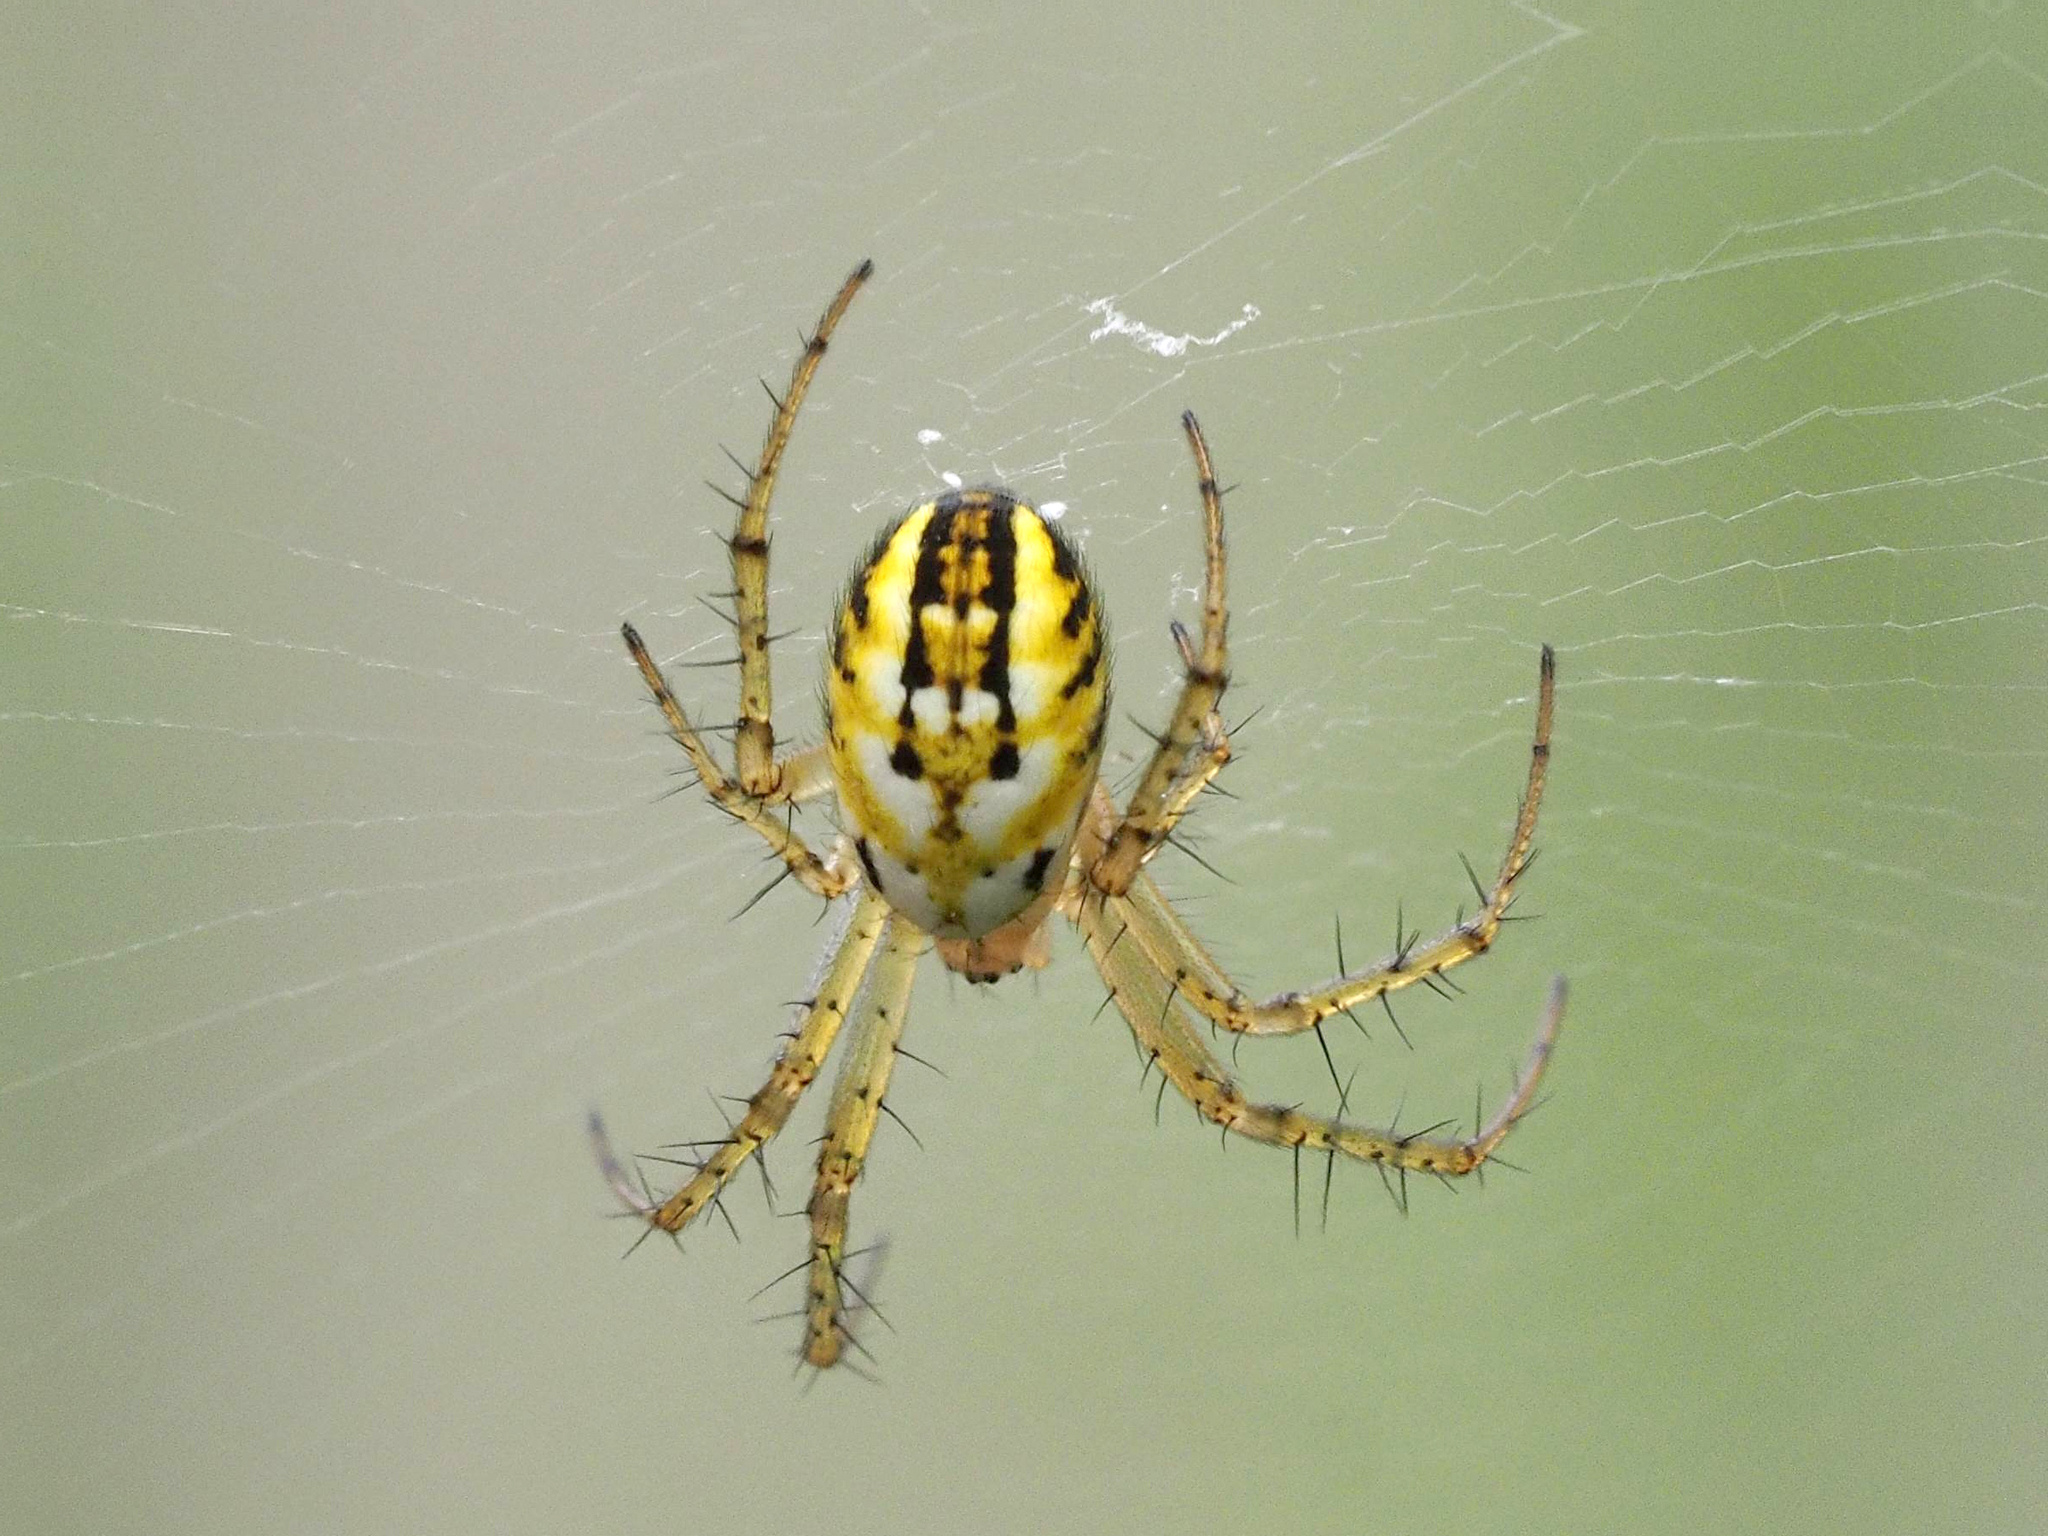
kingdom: Animalia
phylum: Arthropoda
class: Arachnida
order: Araneae
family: Araneidae
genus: Mangora
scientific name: Mangora acalypha
